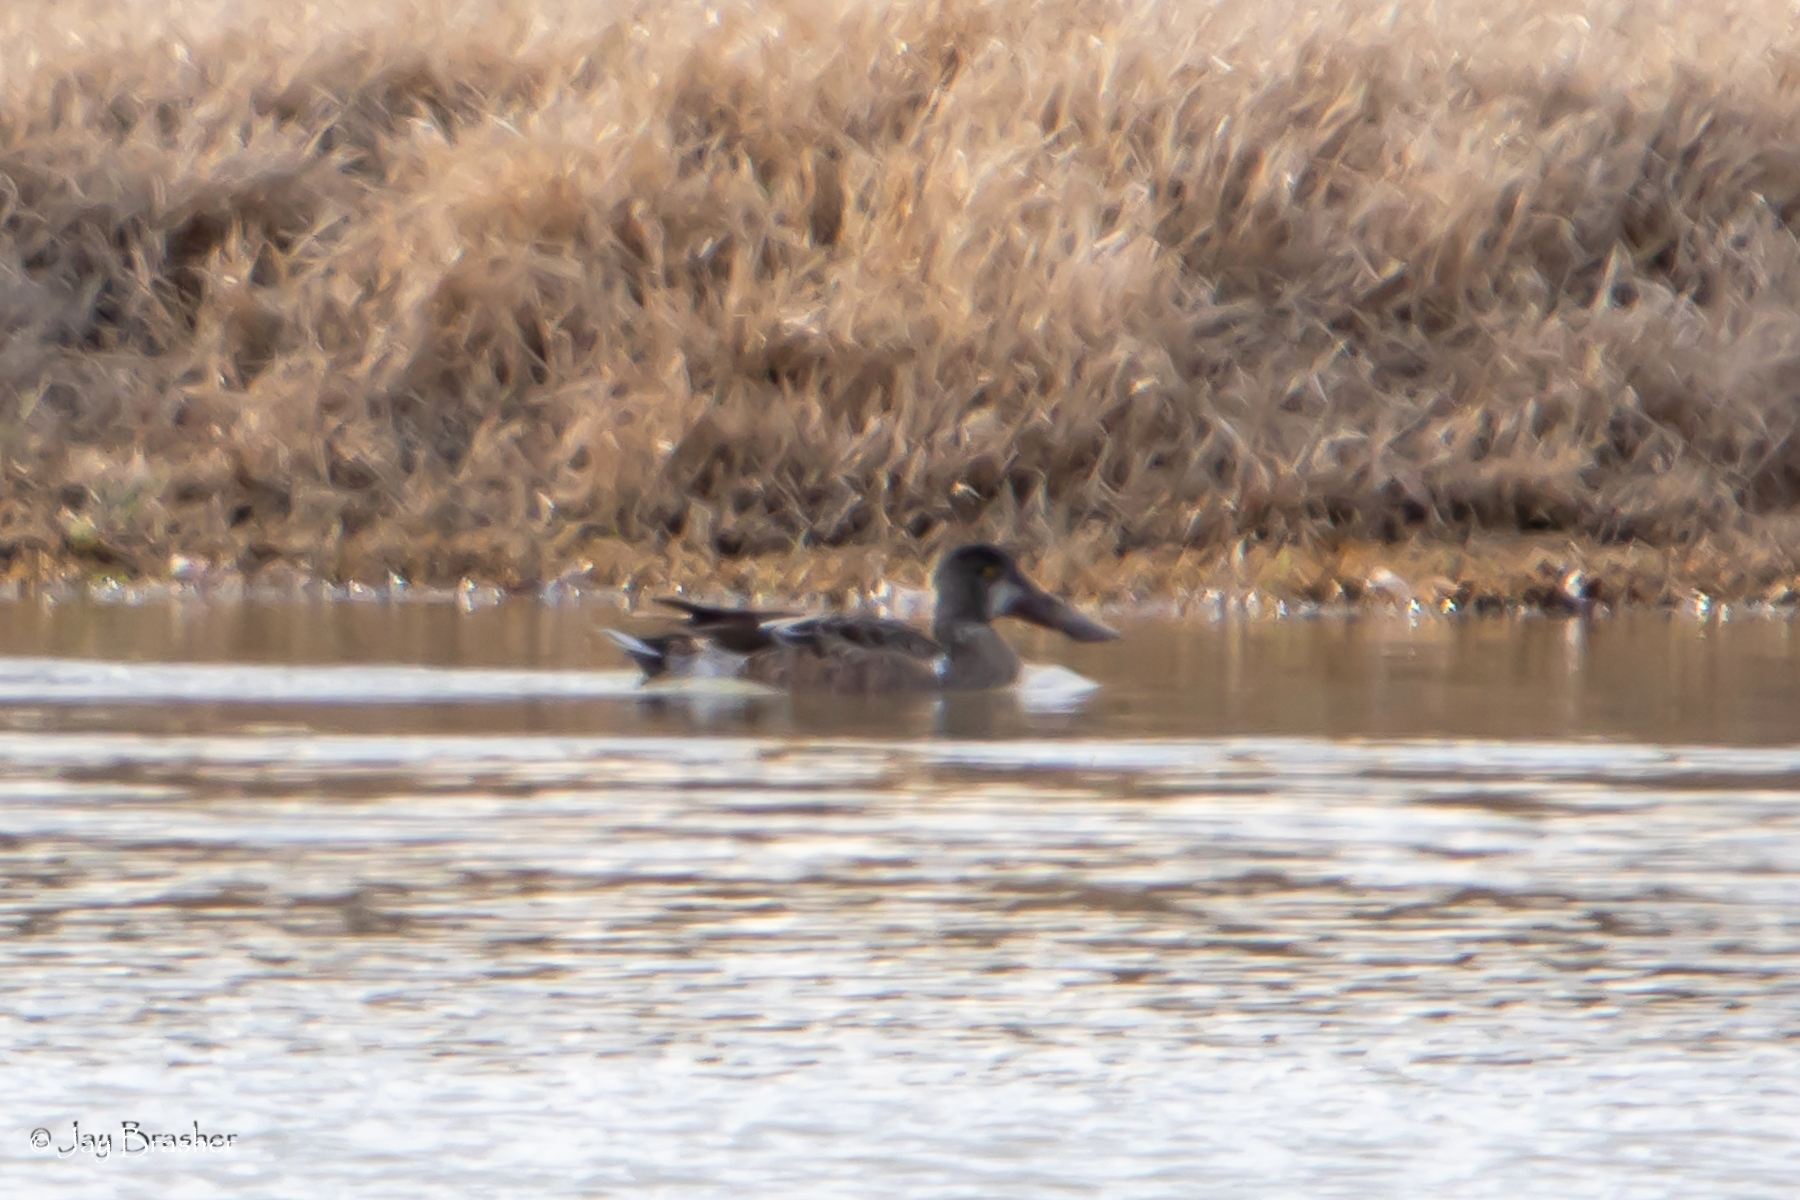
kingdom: Animalia
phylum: Chordata
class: Aves
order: Anseriformes
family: Anatidae
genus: Spatula
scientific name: Spatula clypeata
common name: Northern shoveler
